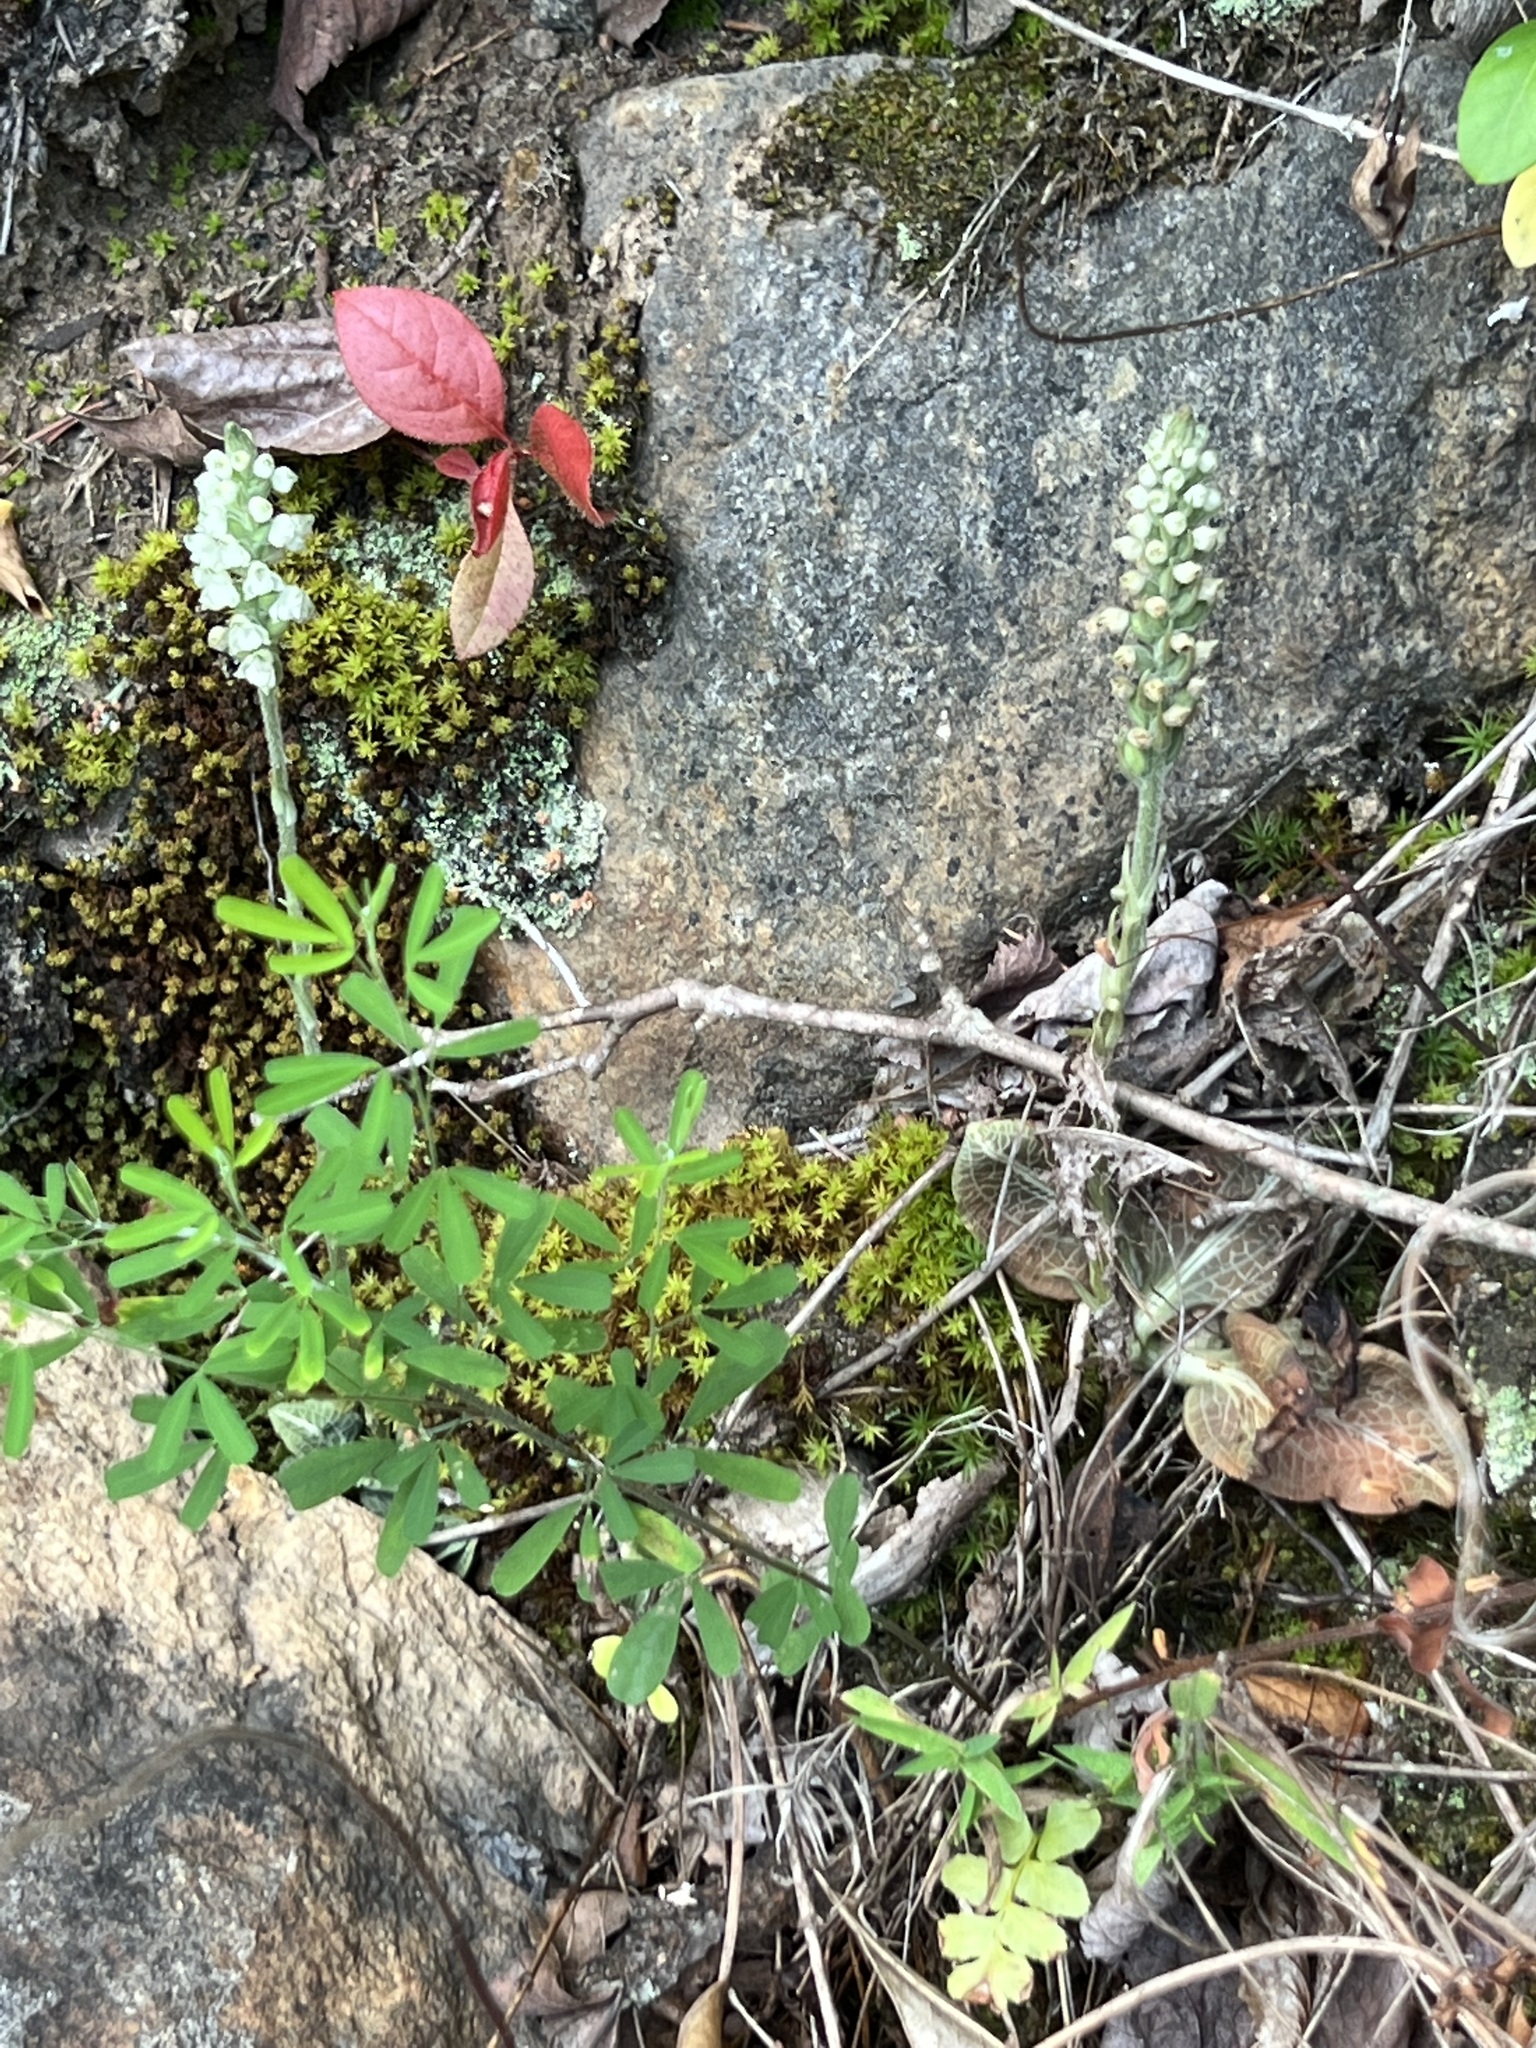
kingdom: Plantae
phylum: Tracheophyta
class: Liliopsida
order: Asparagales
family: Orchidaceae
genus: Goodyera
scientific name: Goodyera pubescens
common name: Downy rattlesnake-plantain
